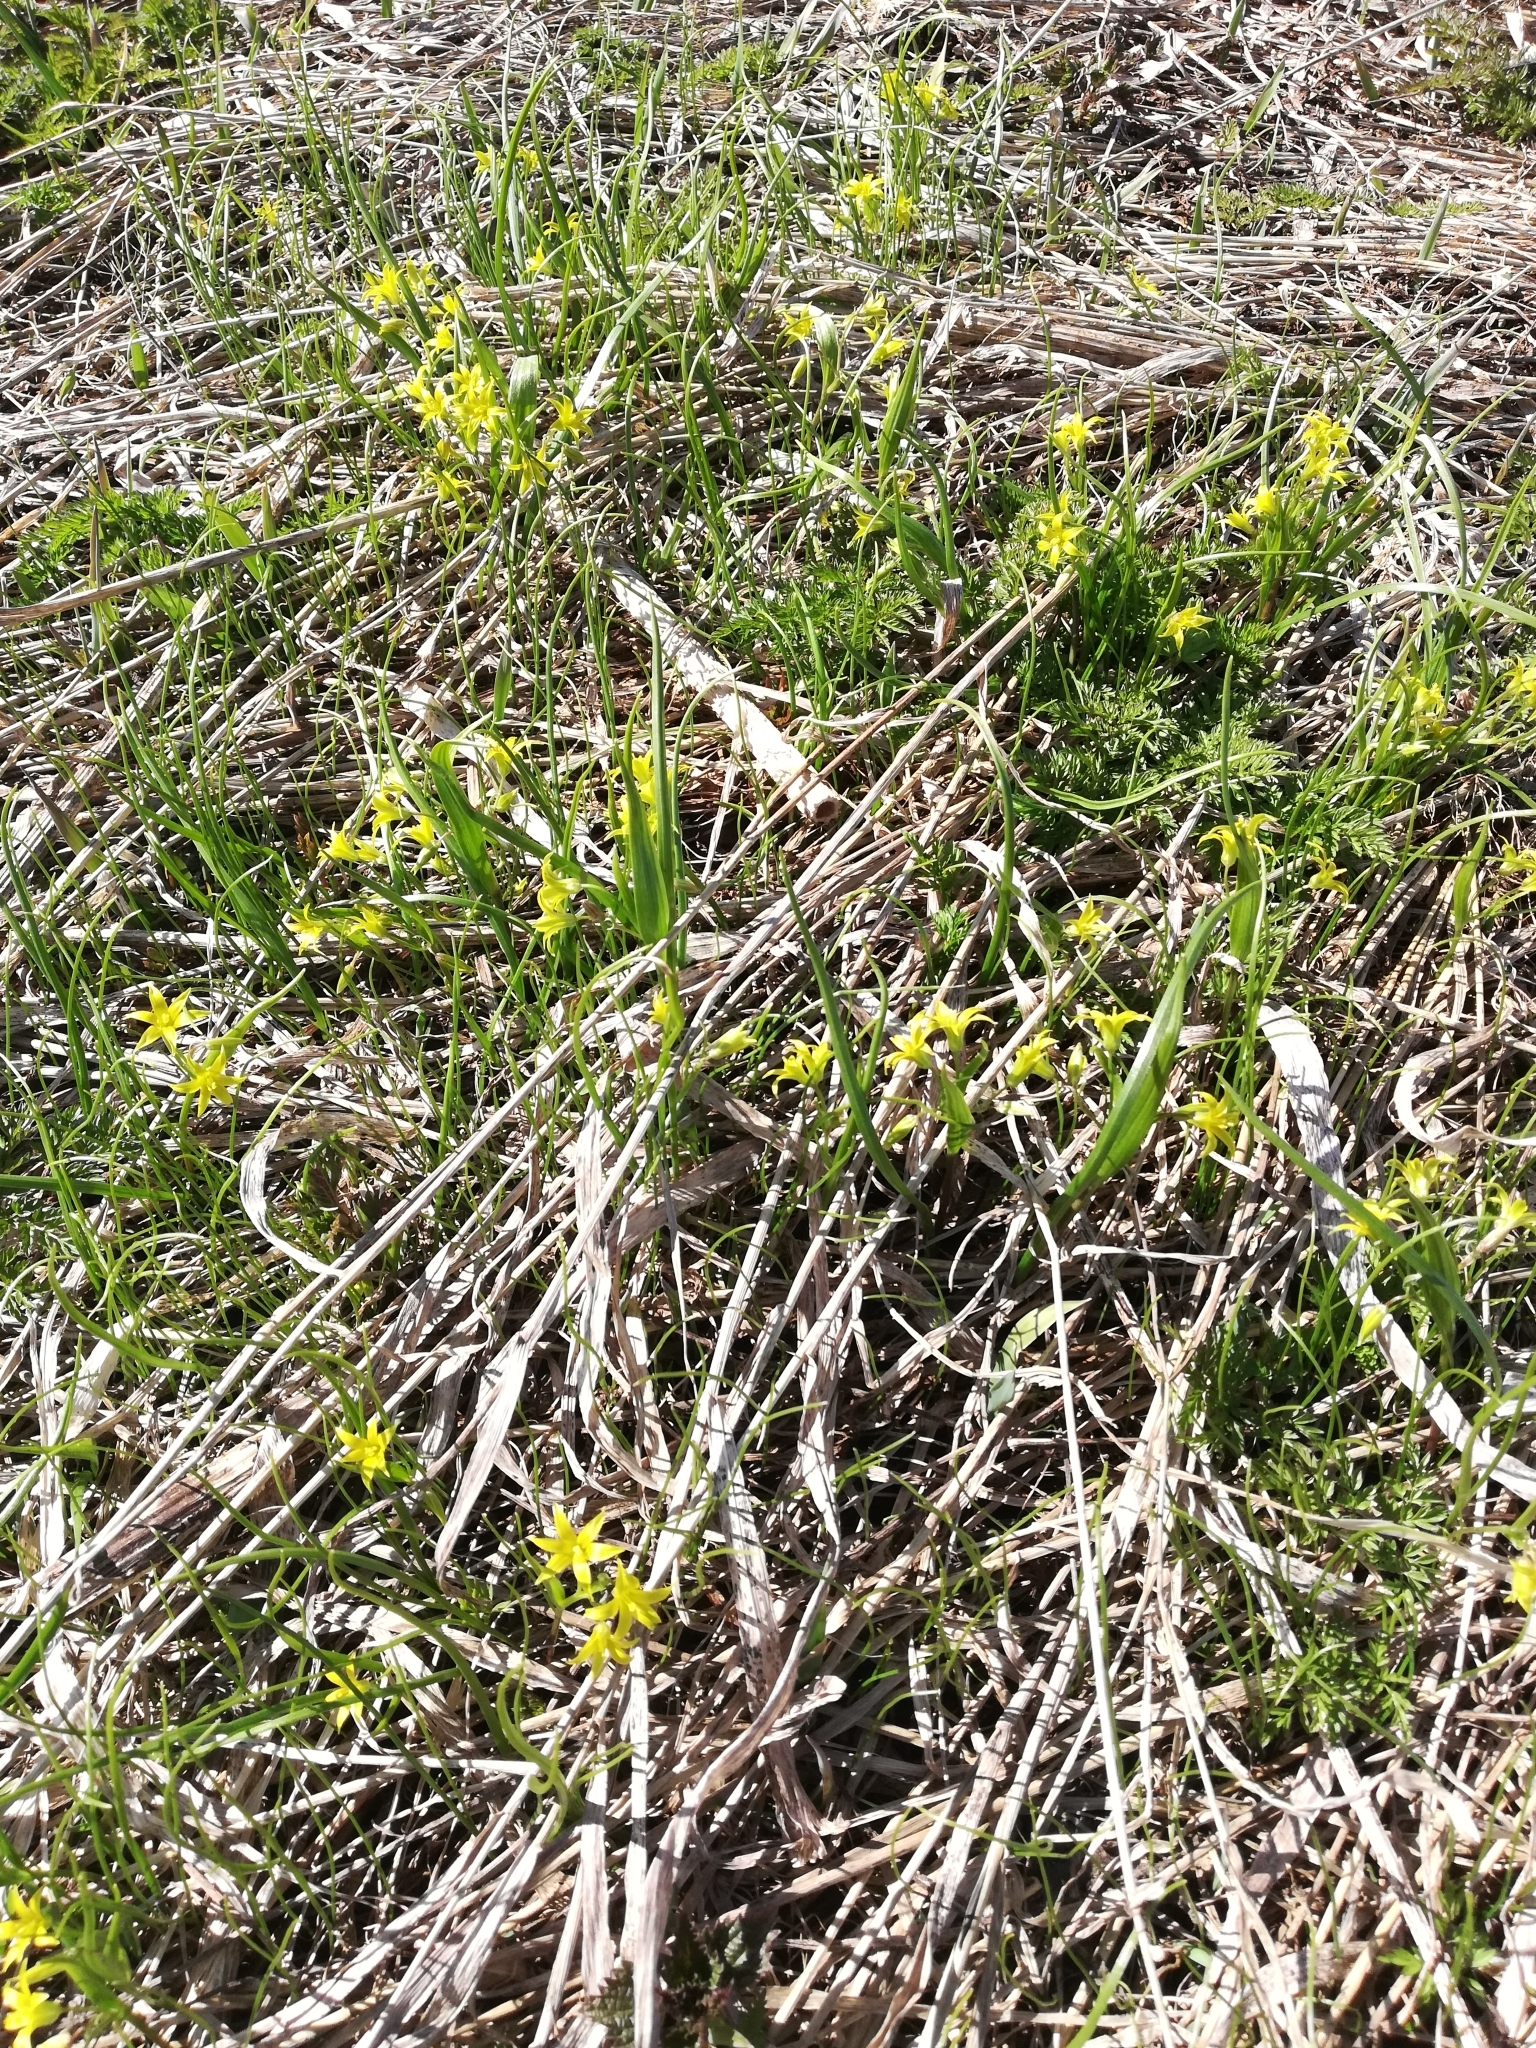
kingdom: Plantae
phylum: Tracheophyta
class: Liliopsida
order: Liliales
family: Liliaceae
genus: Gagea
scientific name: Gagea minima
